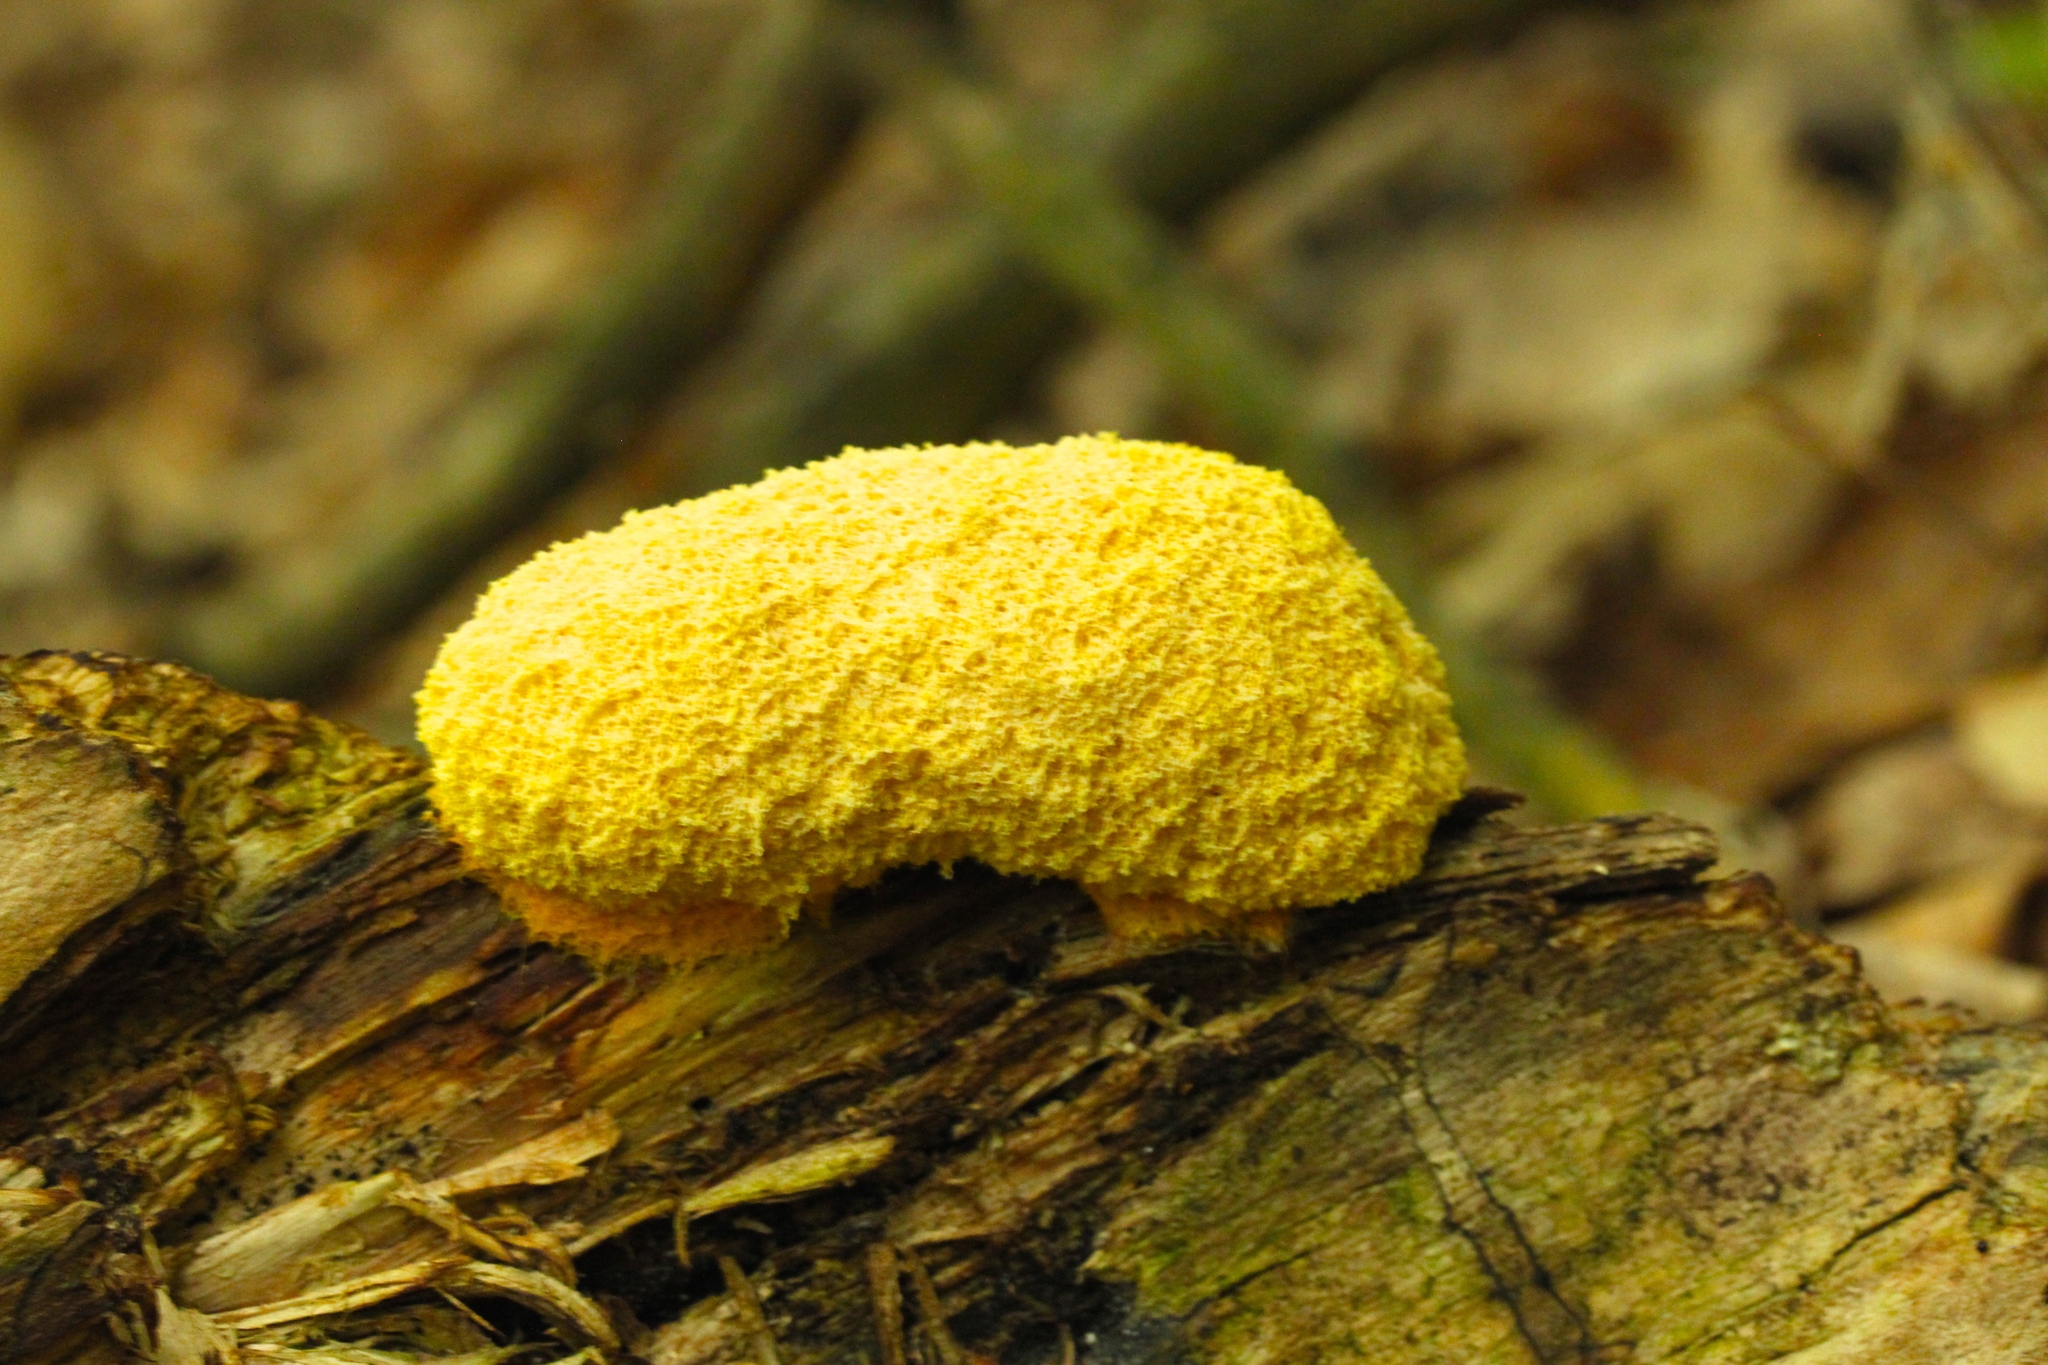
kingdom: Protozoa
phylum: Mycetozoa
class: Myxomycetes
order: Physarales
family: Physaraceae
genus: Fuligo
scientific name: Fuligo septica
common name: Dog vomit slime mold
